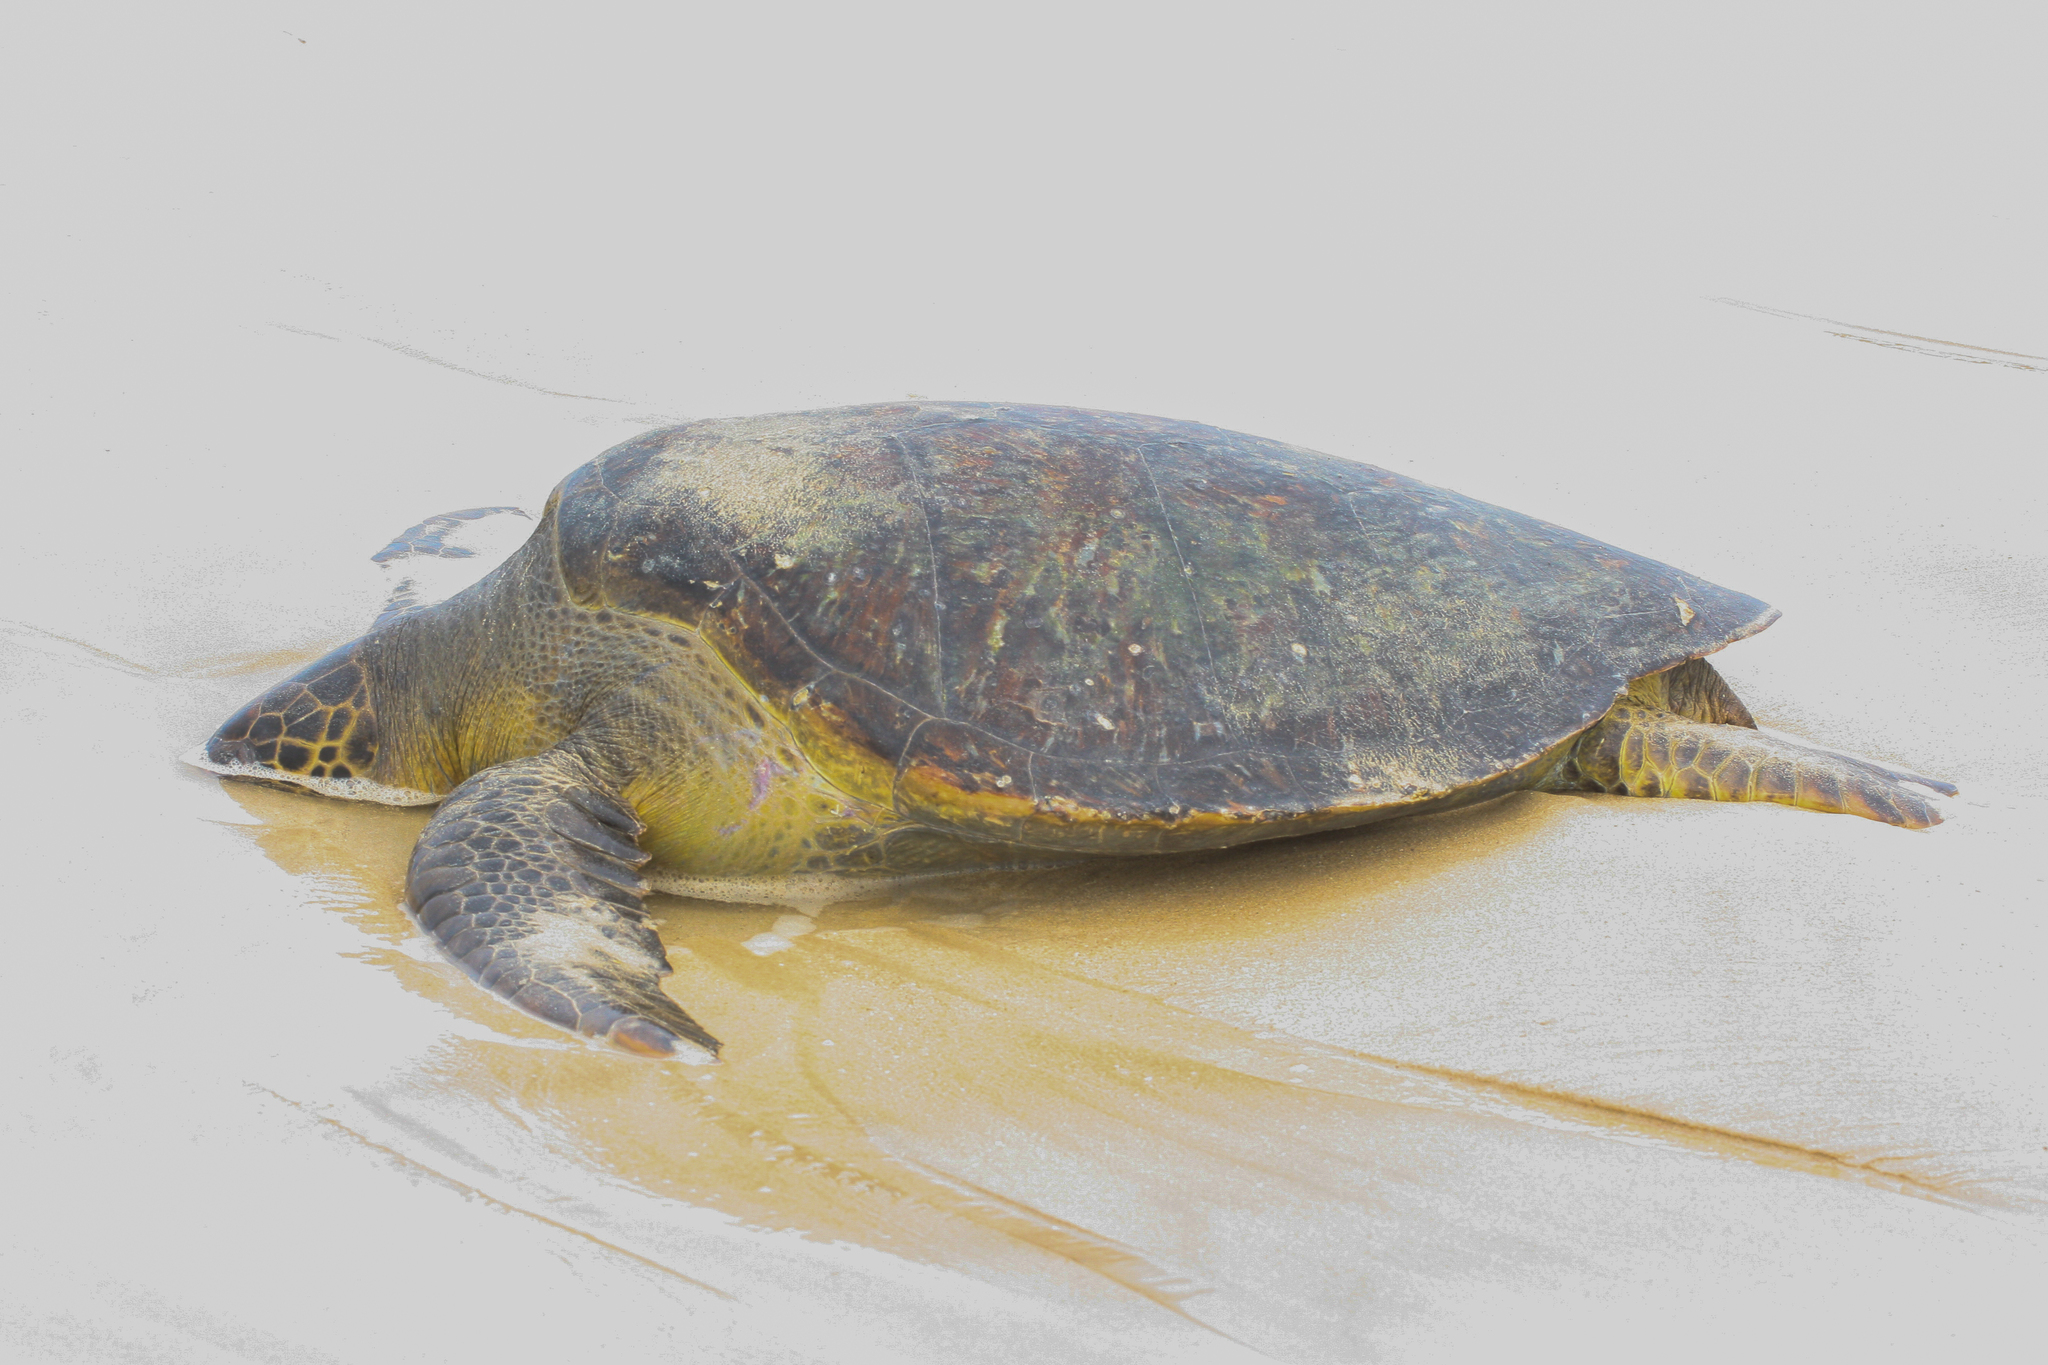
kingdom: Animalia
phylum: Chordata
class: Testudines
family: Cheloniidae
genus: Chelonia
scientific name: Chelonia mydas
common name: Green turtle
